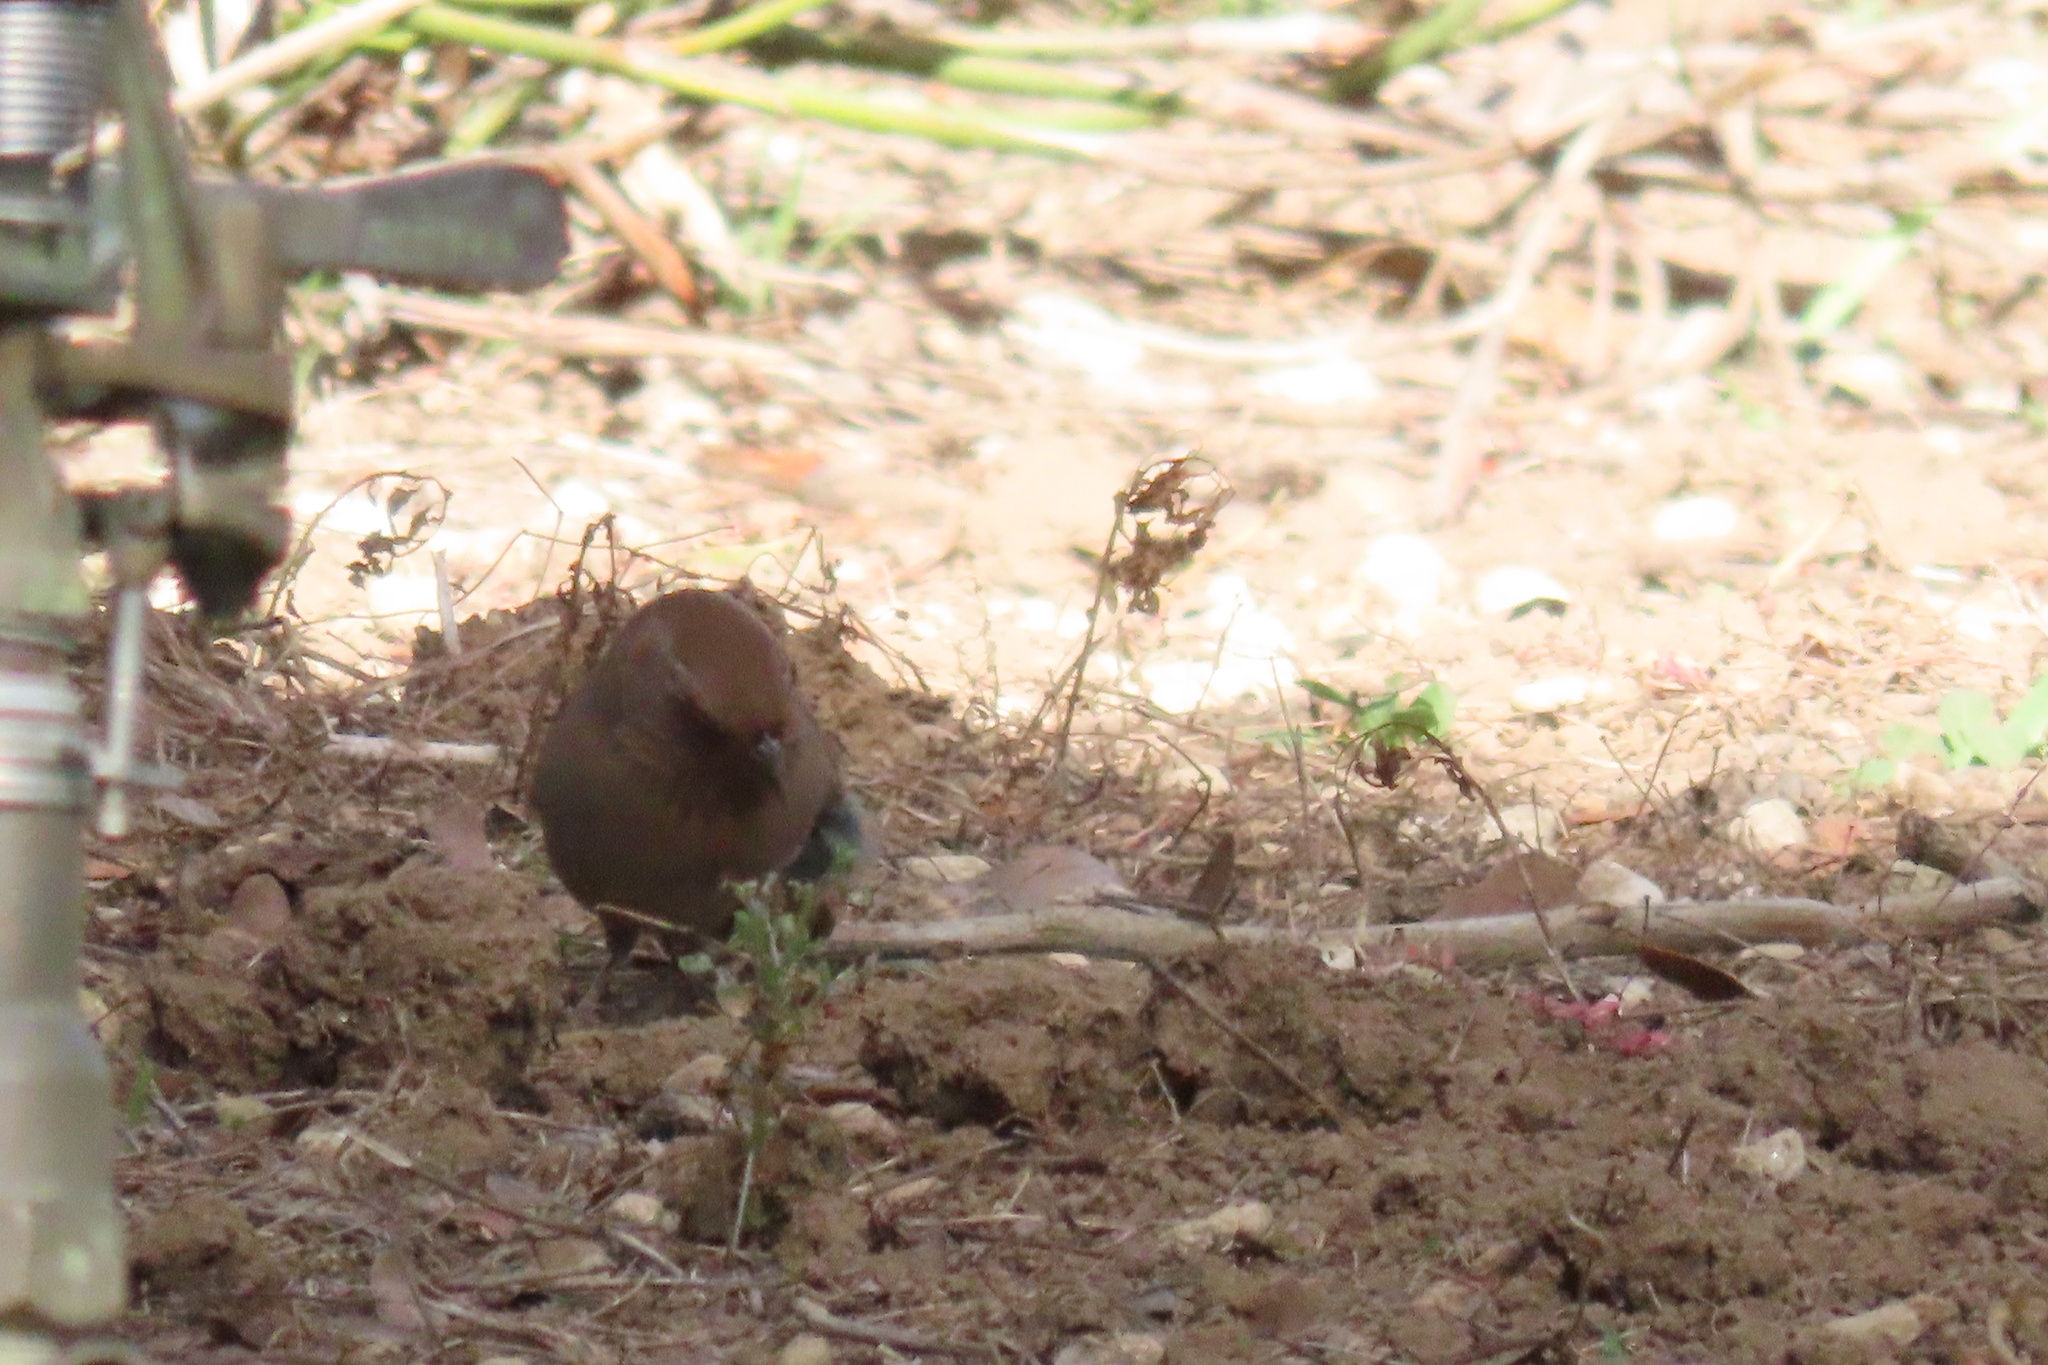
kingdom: Animalia
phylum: Chordata
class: Aves
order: Passeriformes
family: Passerellidae
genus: Melozone
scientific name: Melozone crissalis
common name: California towhee
